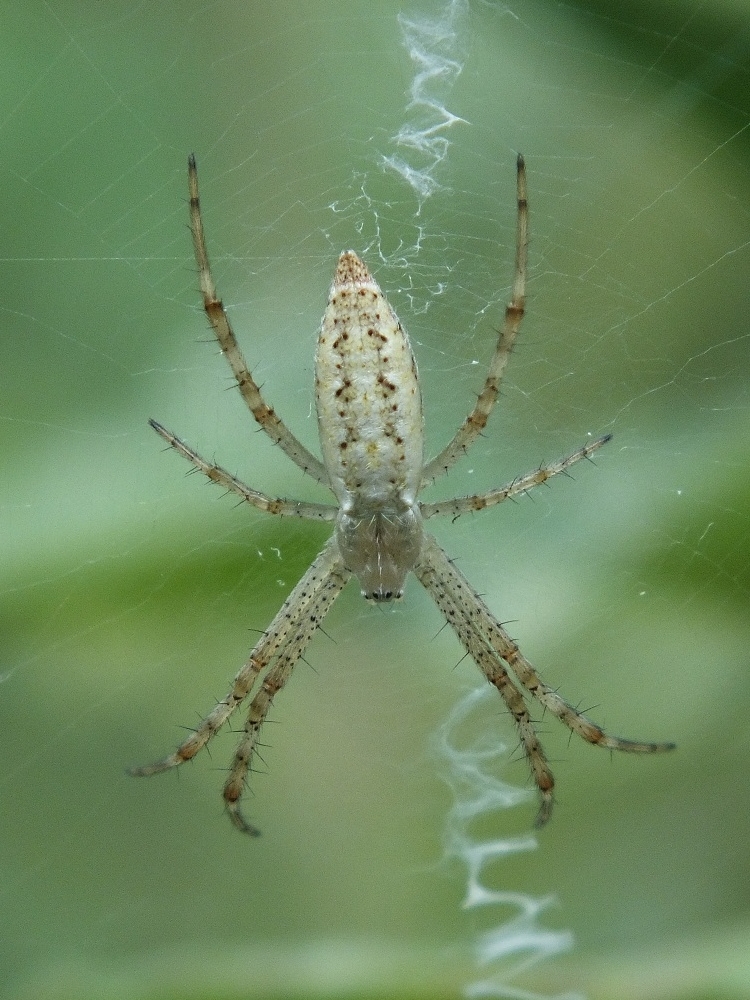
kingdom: Animalia
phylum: Arthropoda
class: Arachnida
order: Araneae
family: Araneidae
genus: Argiope
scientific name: Argiope bruennichi
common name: Wasp spider
